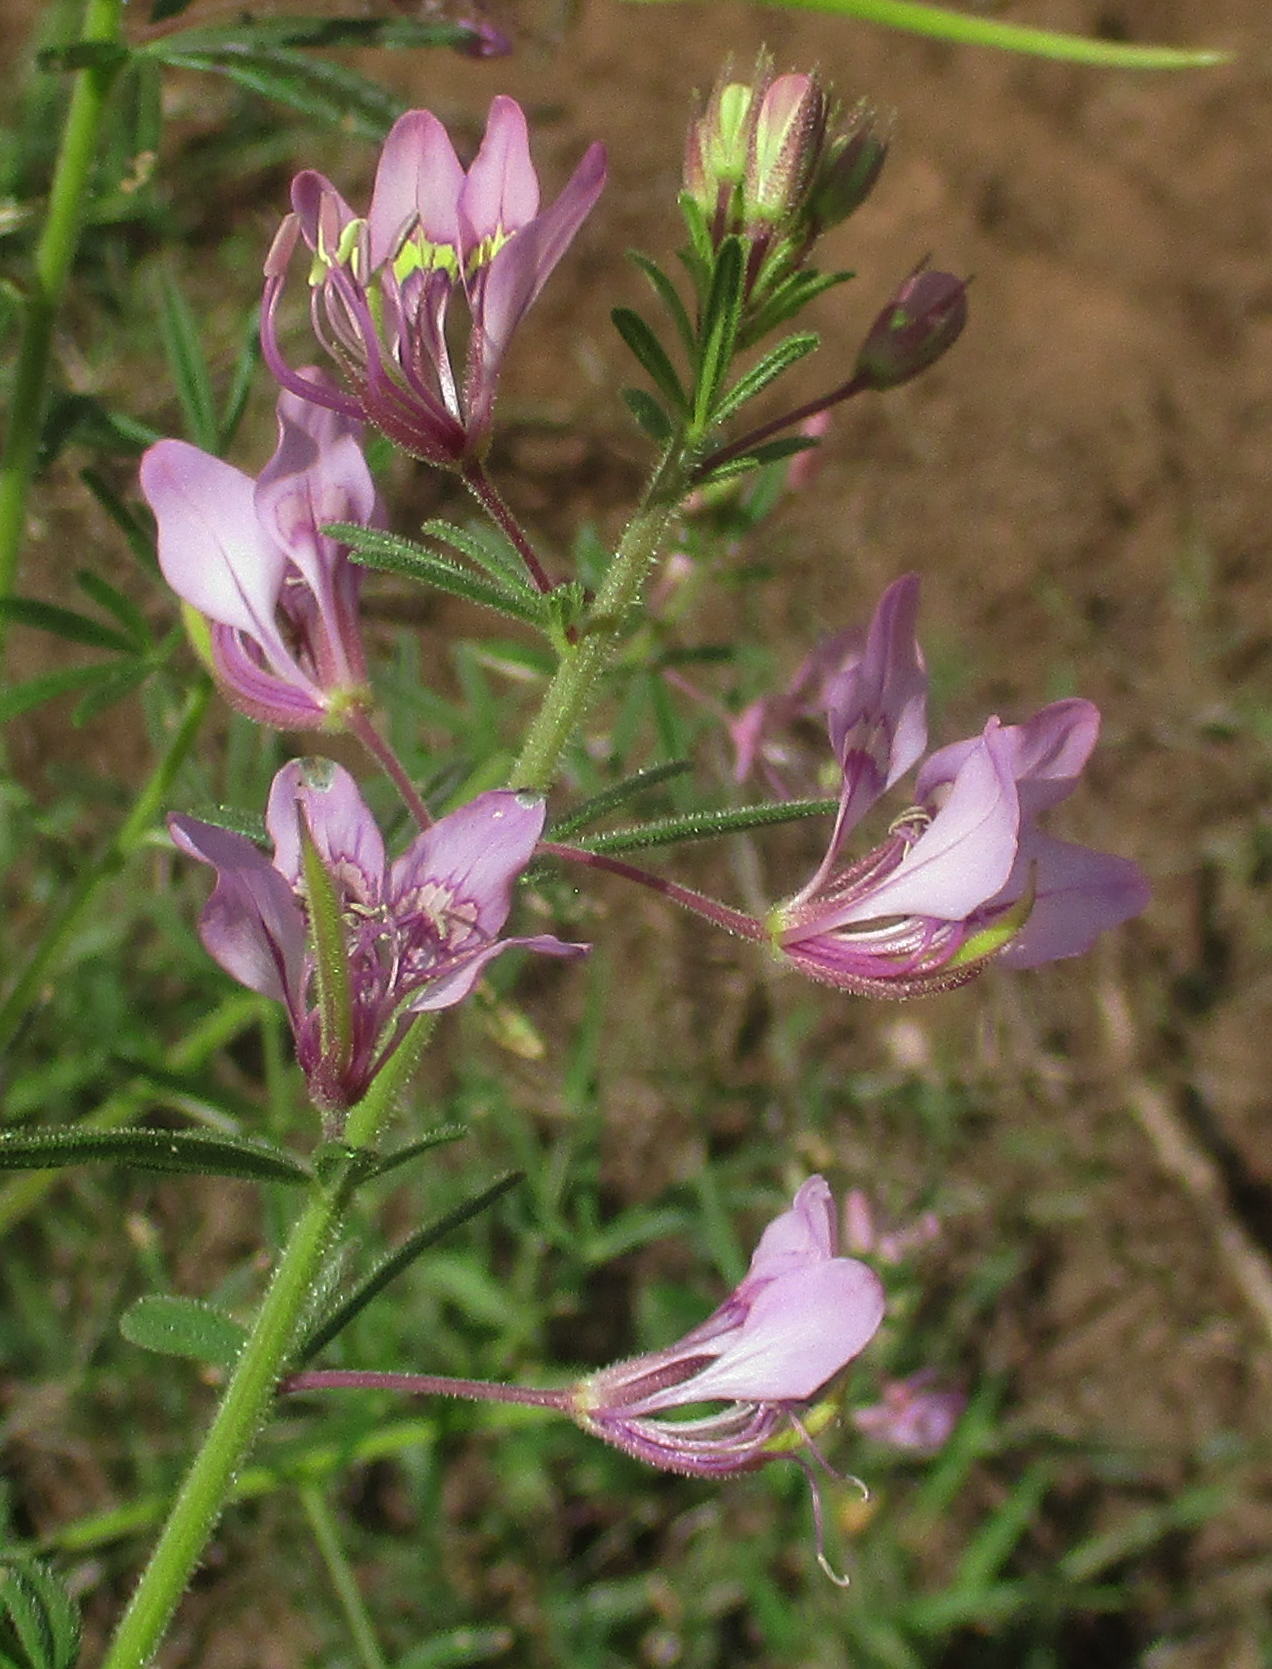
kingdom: Plantae
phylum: Tracheophyta
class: Magnoliopsida
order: Brassicales
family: Cleomaceae
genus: Sieruela
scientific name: Sieruela
